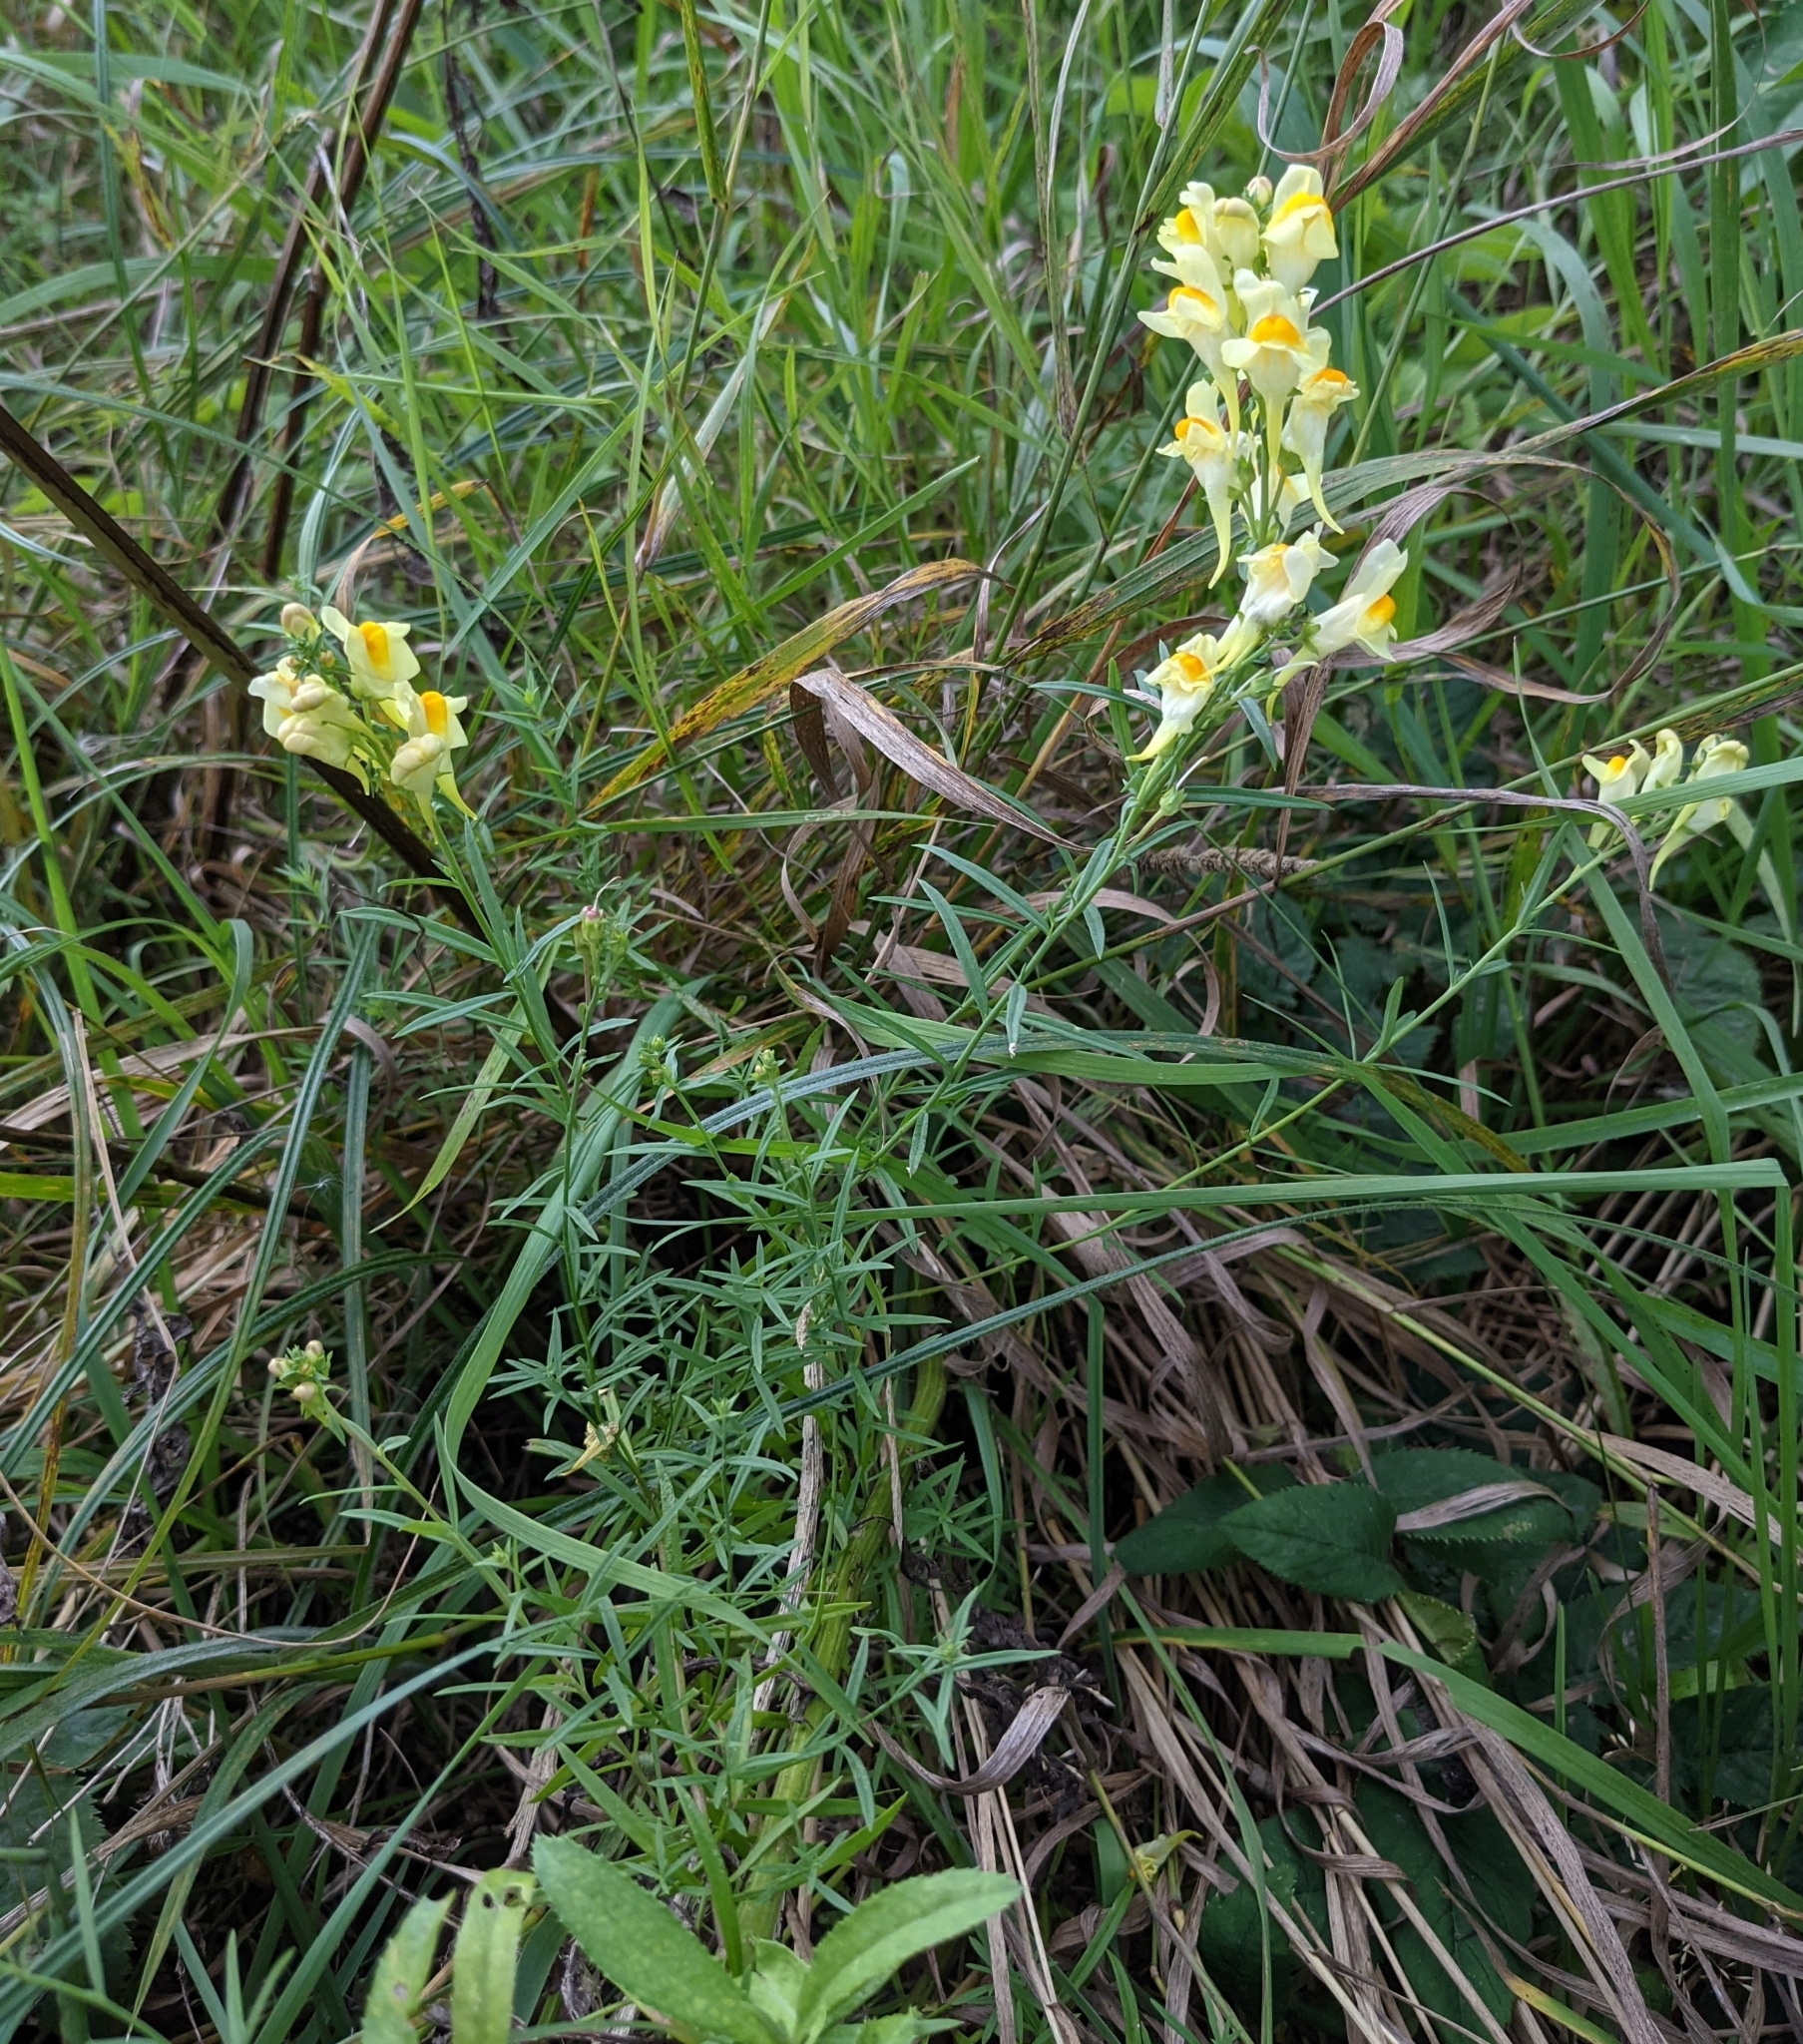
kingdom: Plantae
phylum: Tracheophyta
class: Magnoliopsida
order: Lamiales
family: Plantaginaceae
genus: Linaria
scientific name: Linaria vulgaris
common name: Butter and eggs
